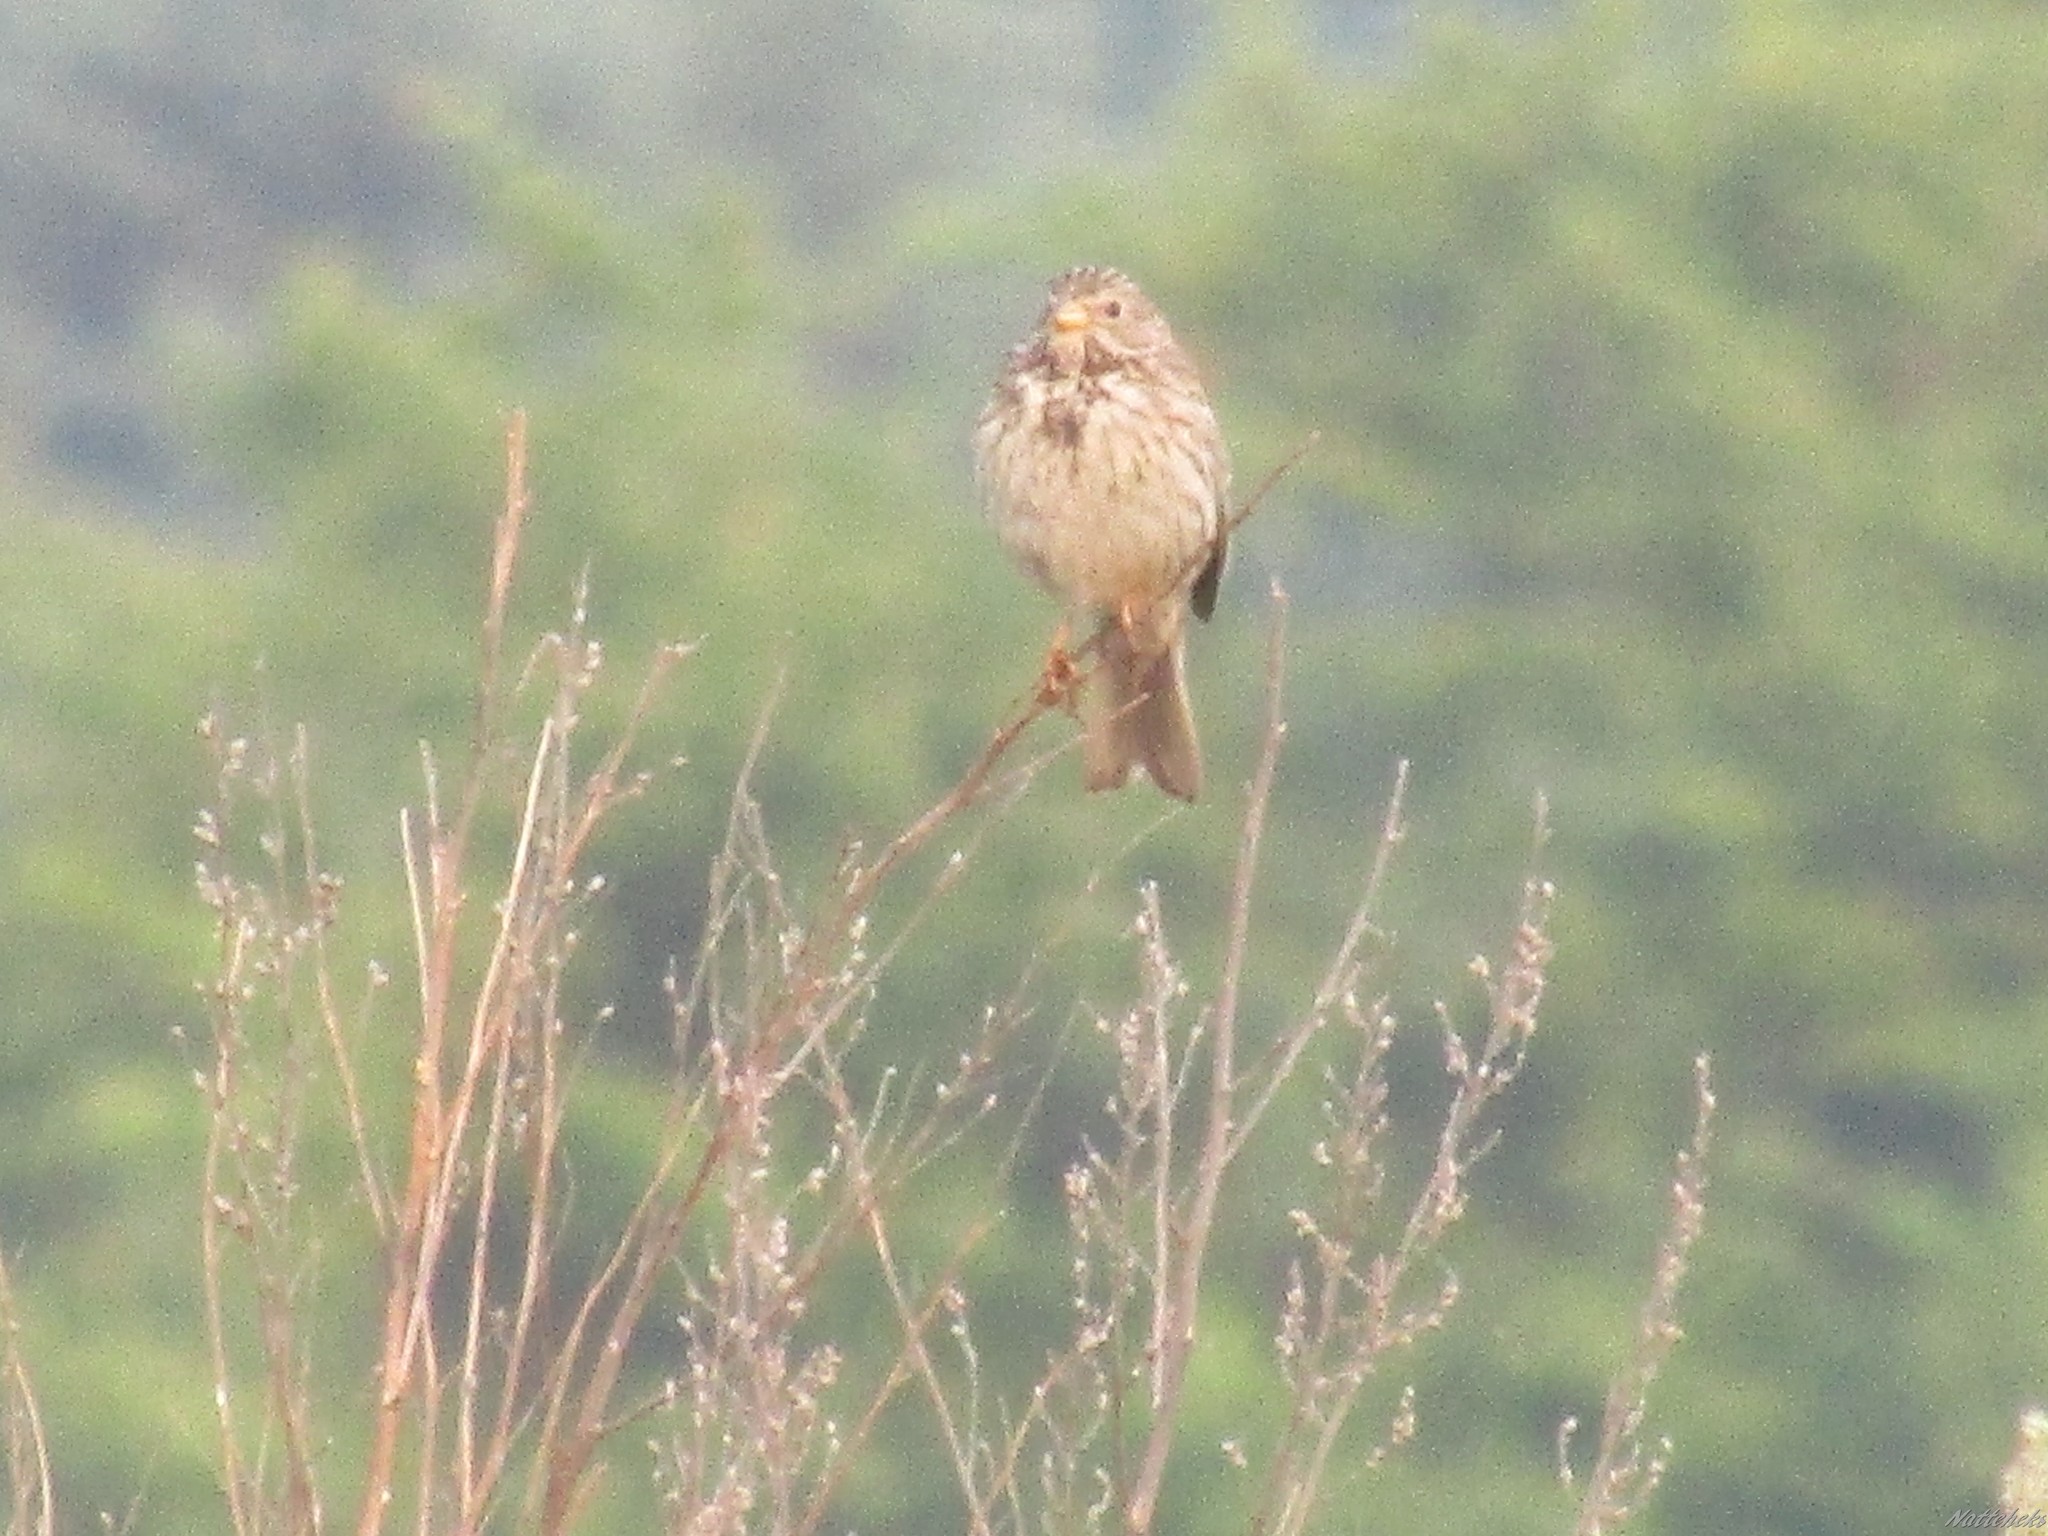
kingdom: Animalia
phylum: Chordata
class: Aves
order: Passeriformes
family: Emberizidae
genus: Emberiza
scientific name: Emberiza calandra
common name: Corn bunting
